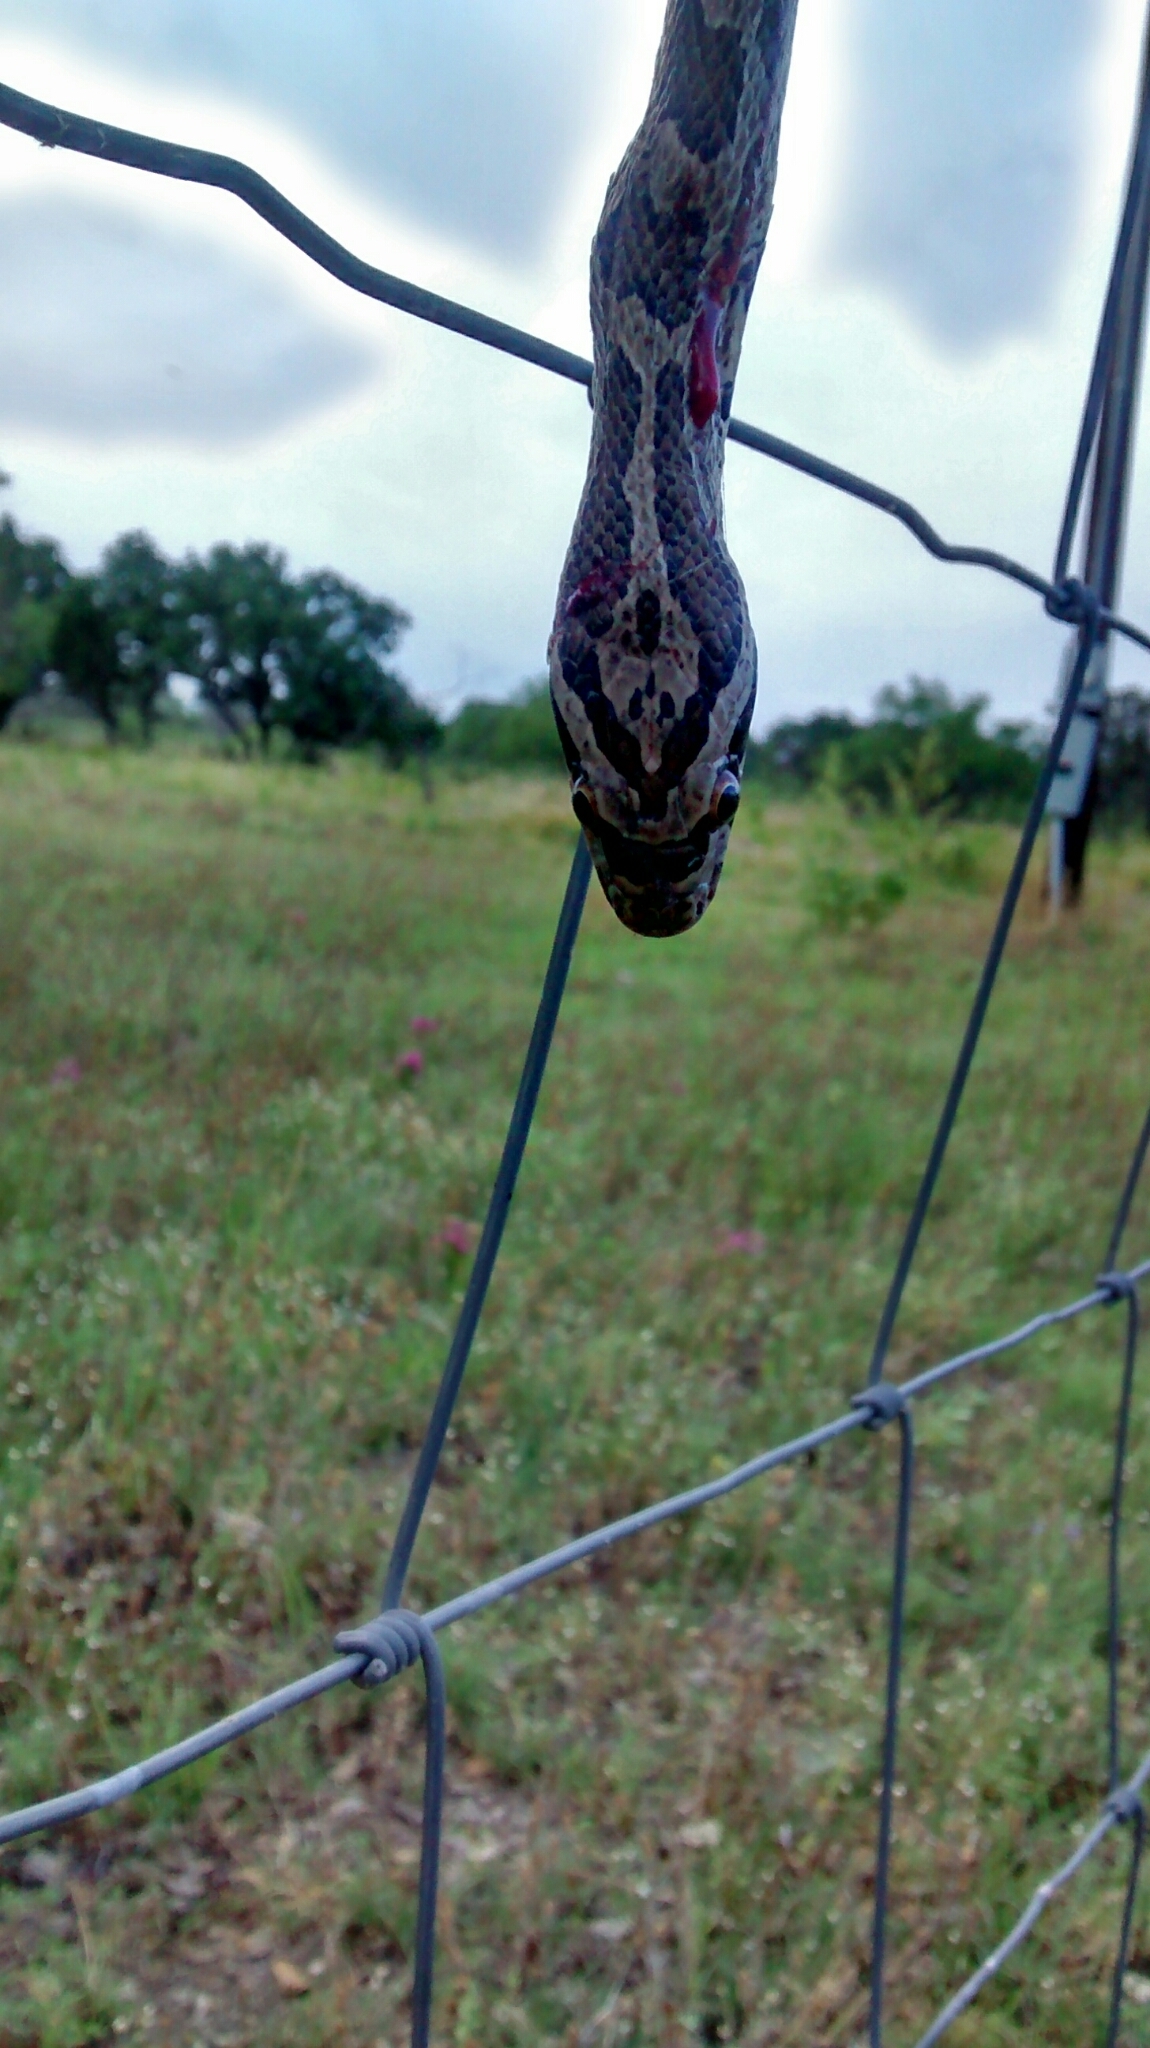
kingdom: Animalia
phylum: Chordata
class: Squamata
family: Colubridae
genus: Pantherophis
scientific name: Pantherophis emoryi
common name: Great plains rat snake
